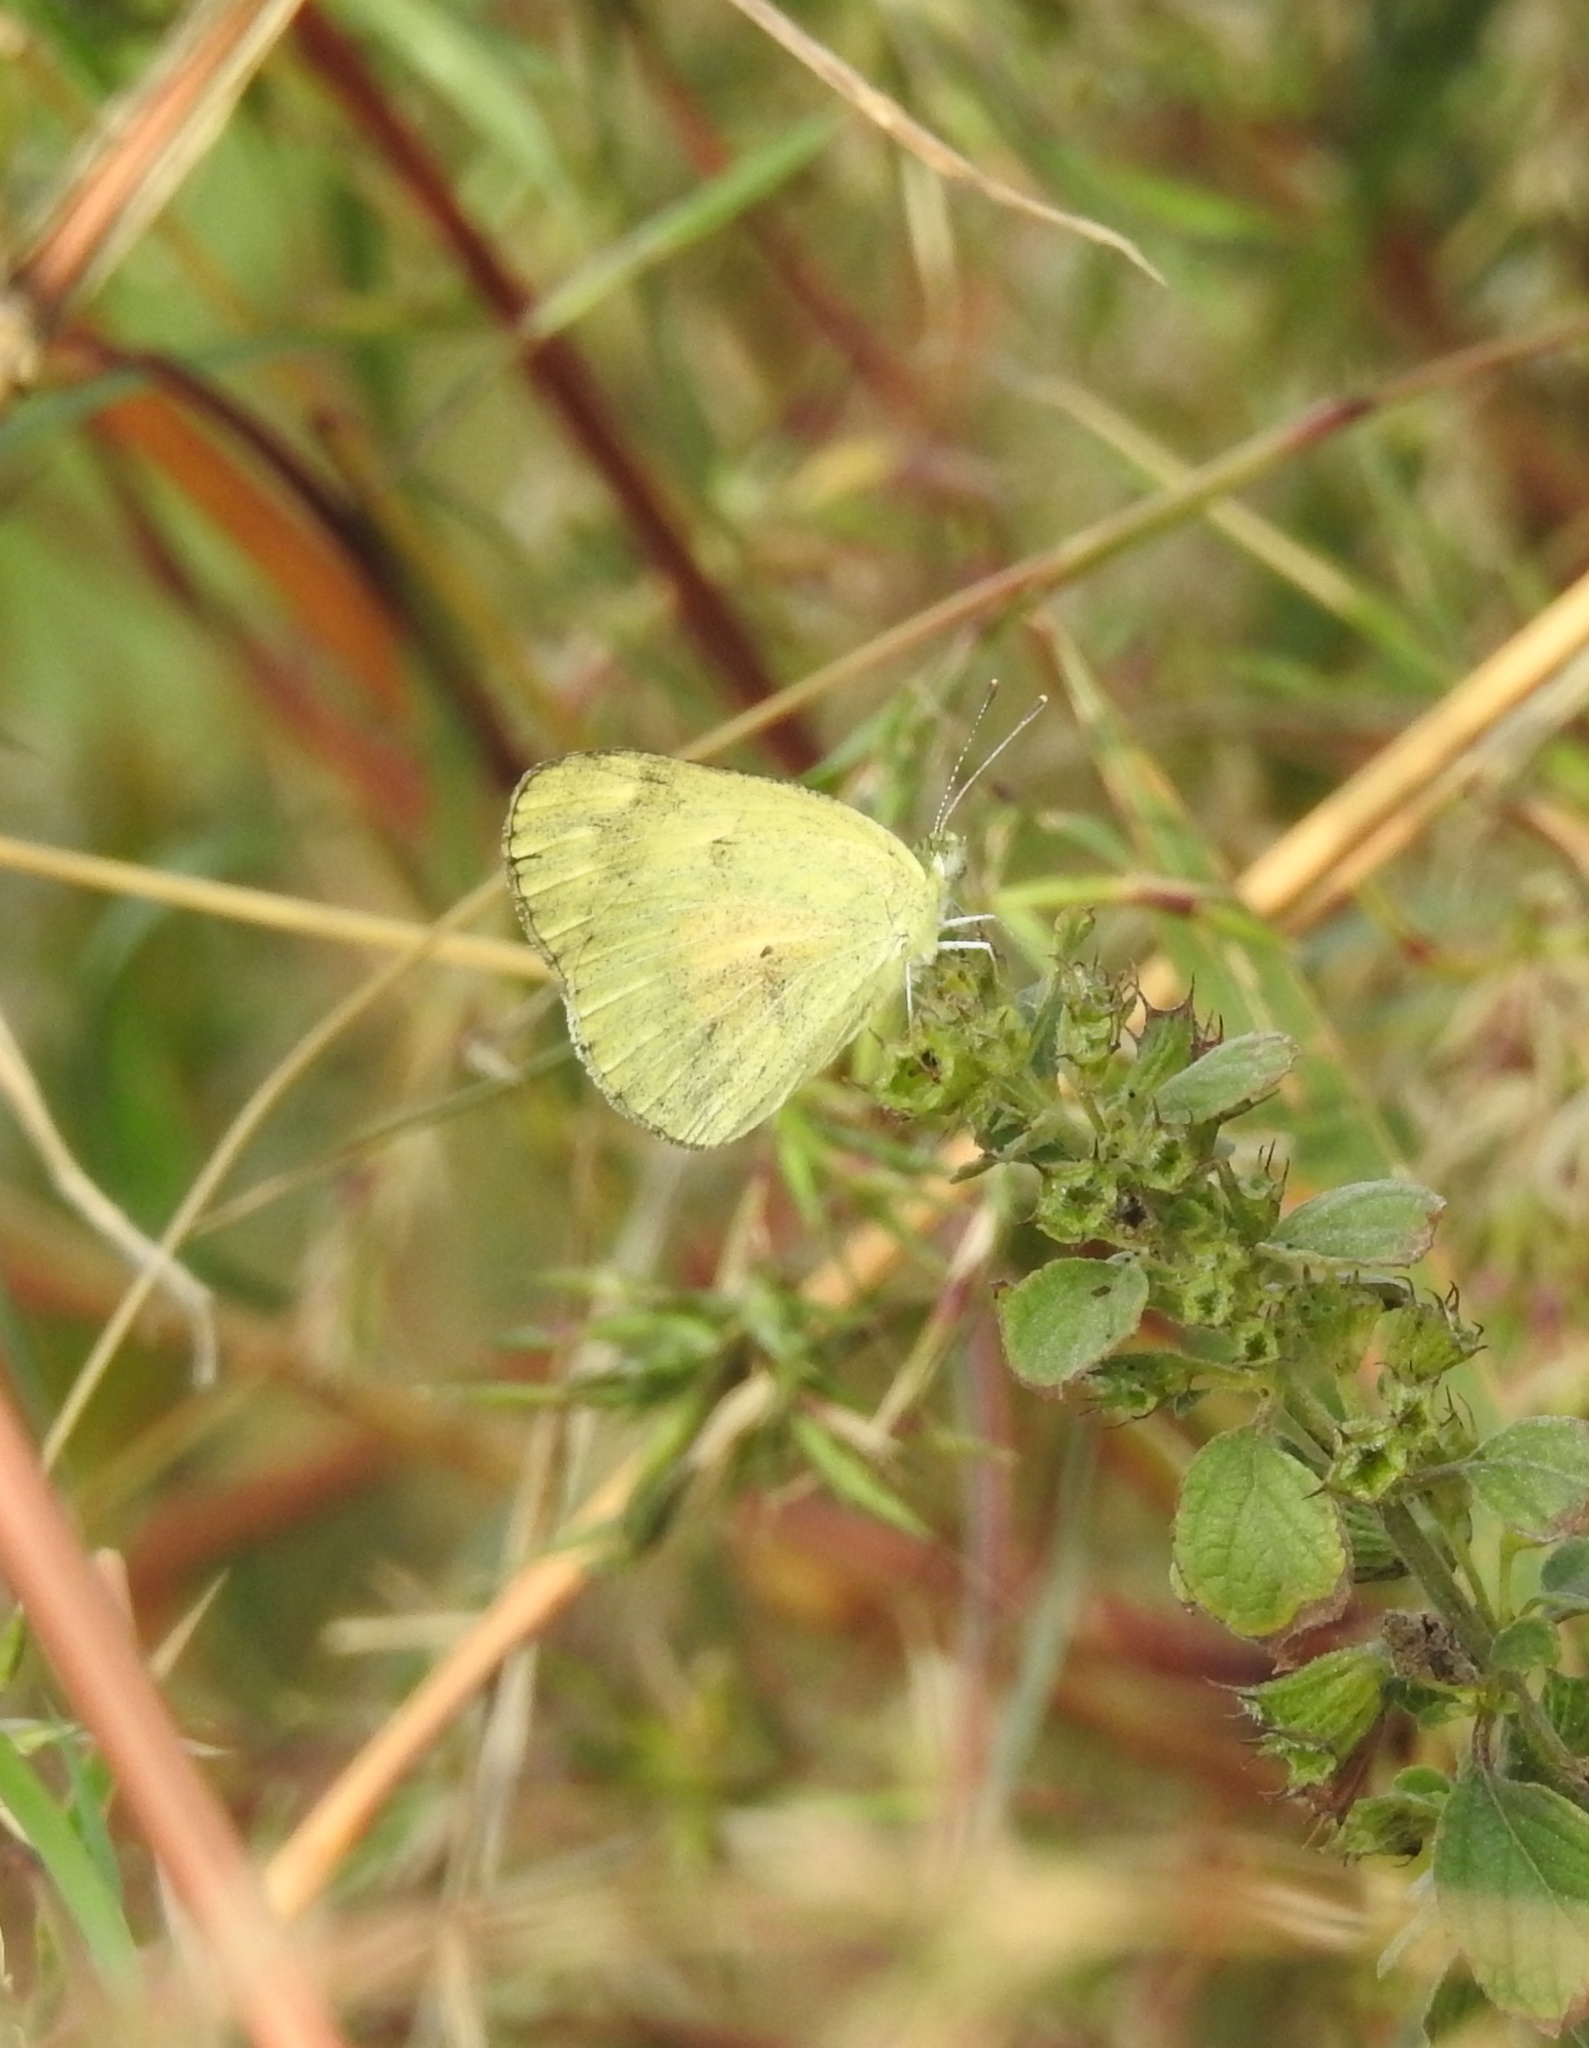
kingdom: Animalia
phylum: Arthropoda
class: Insecta
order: Lepidoptera
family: Pieridae
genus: Colotis
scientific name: Colotis amata
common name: Small salmon arab
